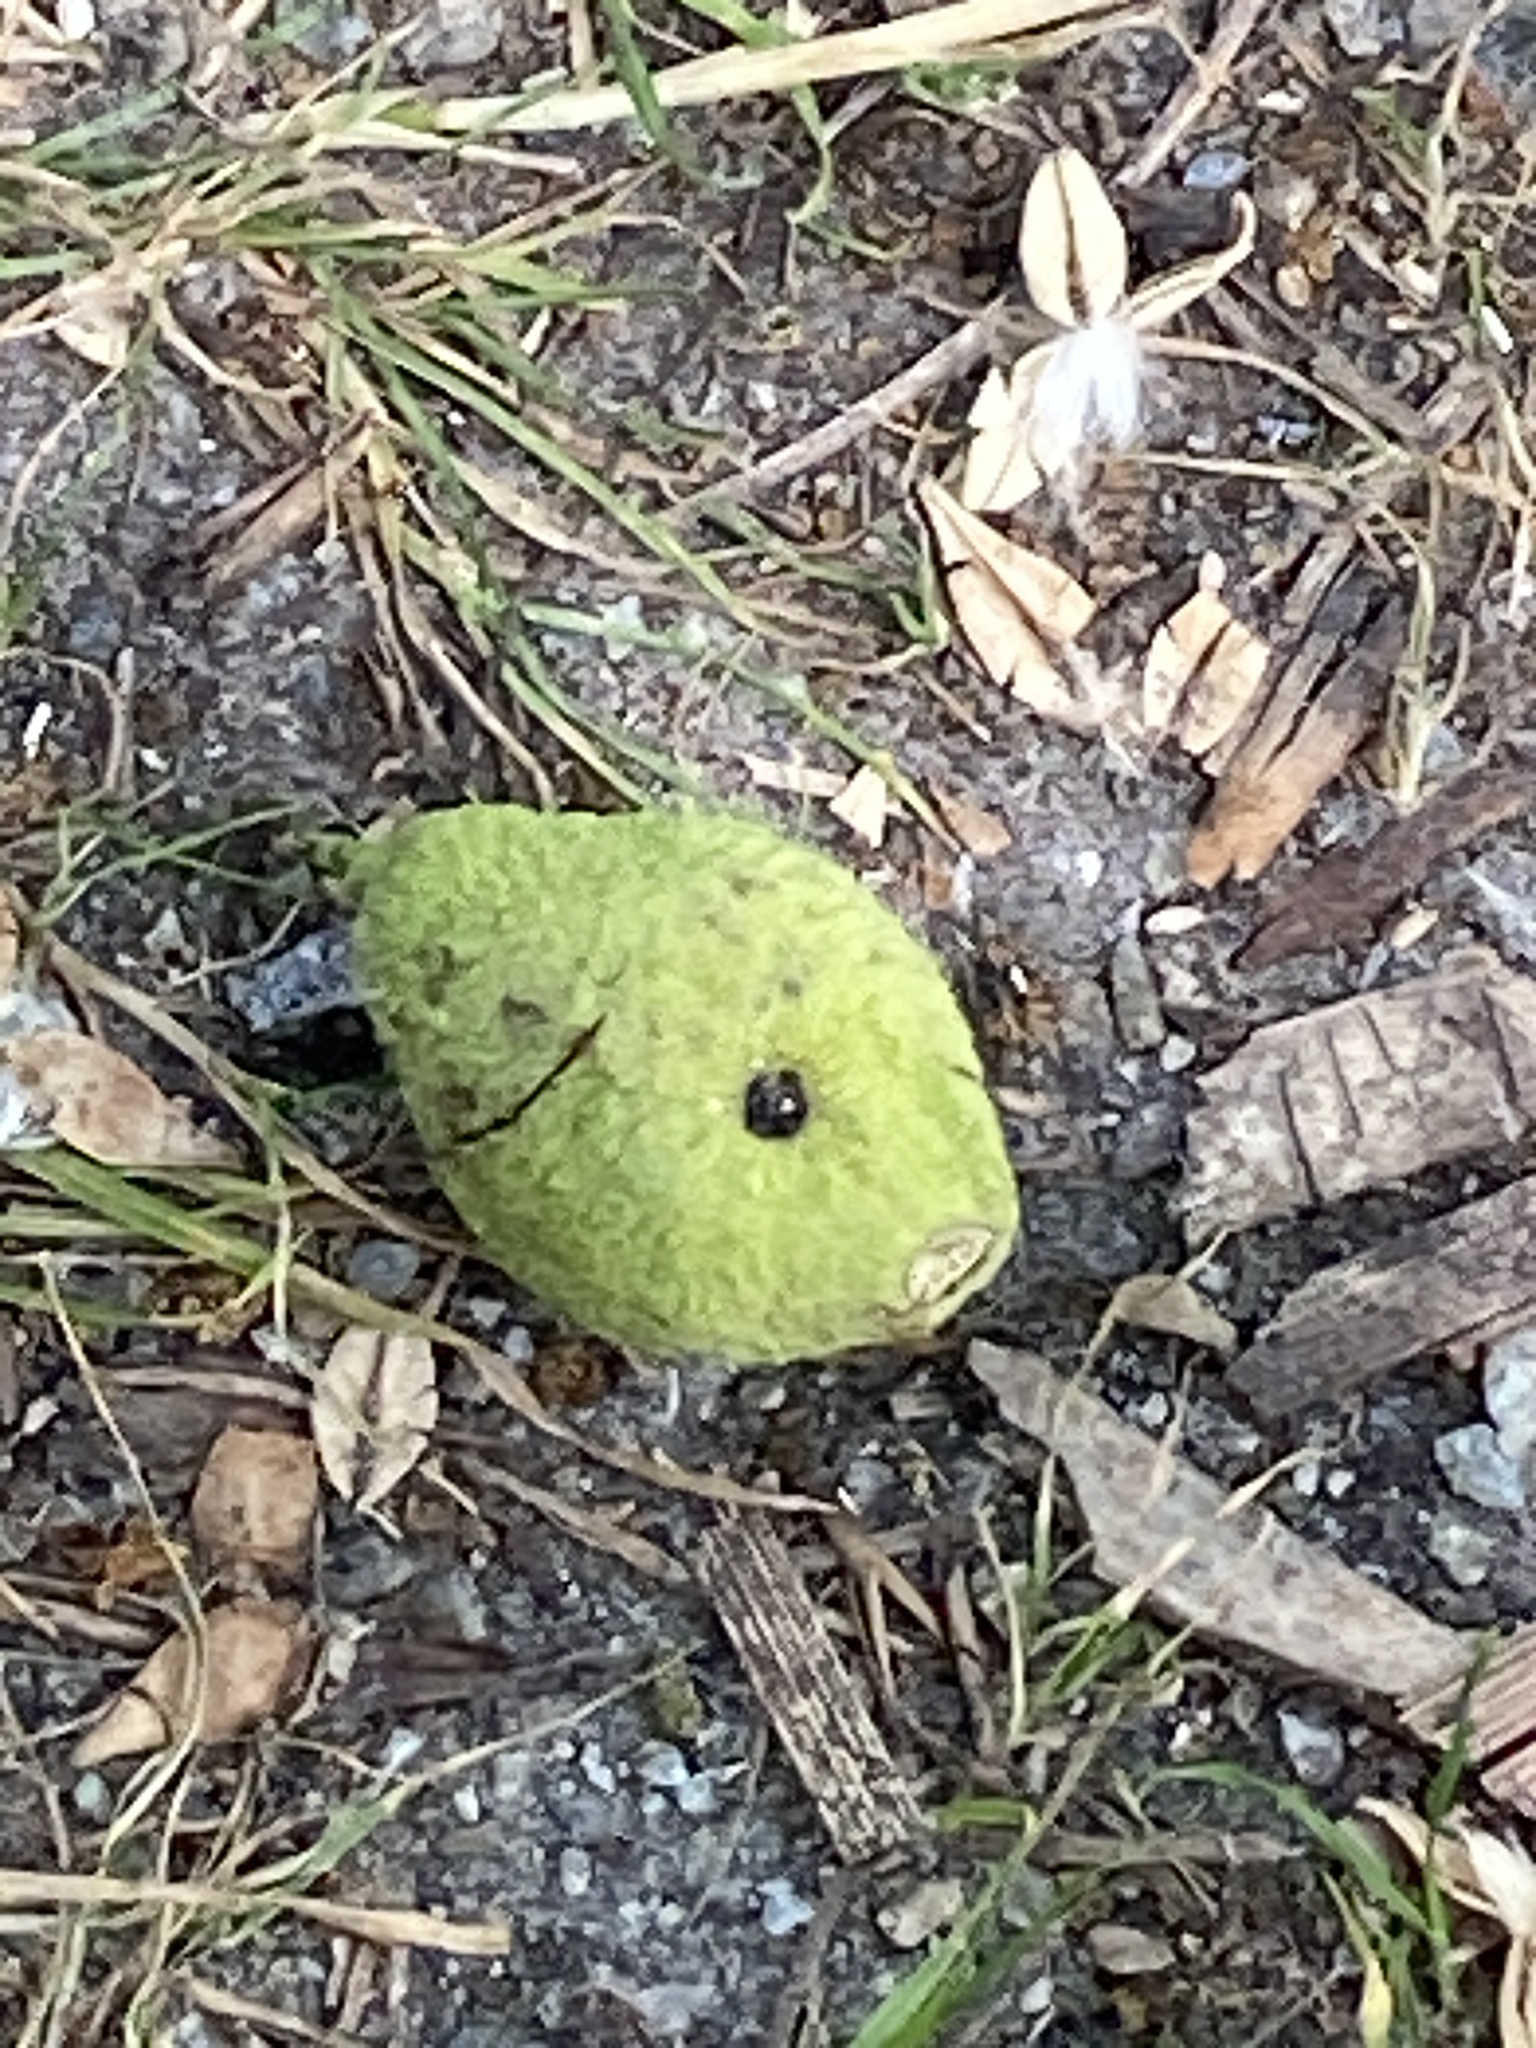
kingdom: Plantae
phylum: Tracheophyta
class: Magnoliopsida
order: Fagales
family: Juglandaceae
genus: Juglans
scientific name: Juglans nigra
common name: Black walnut
